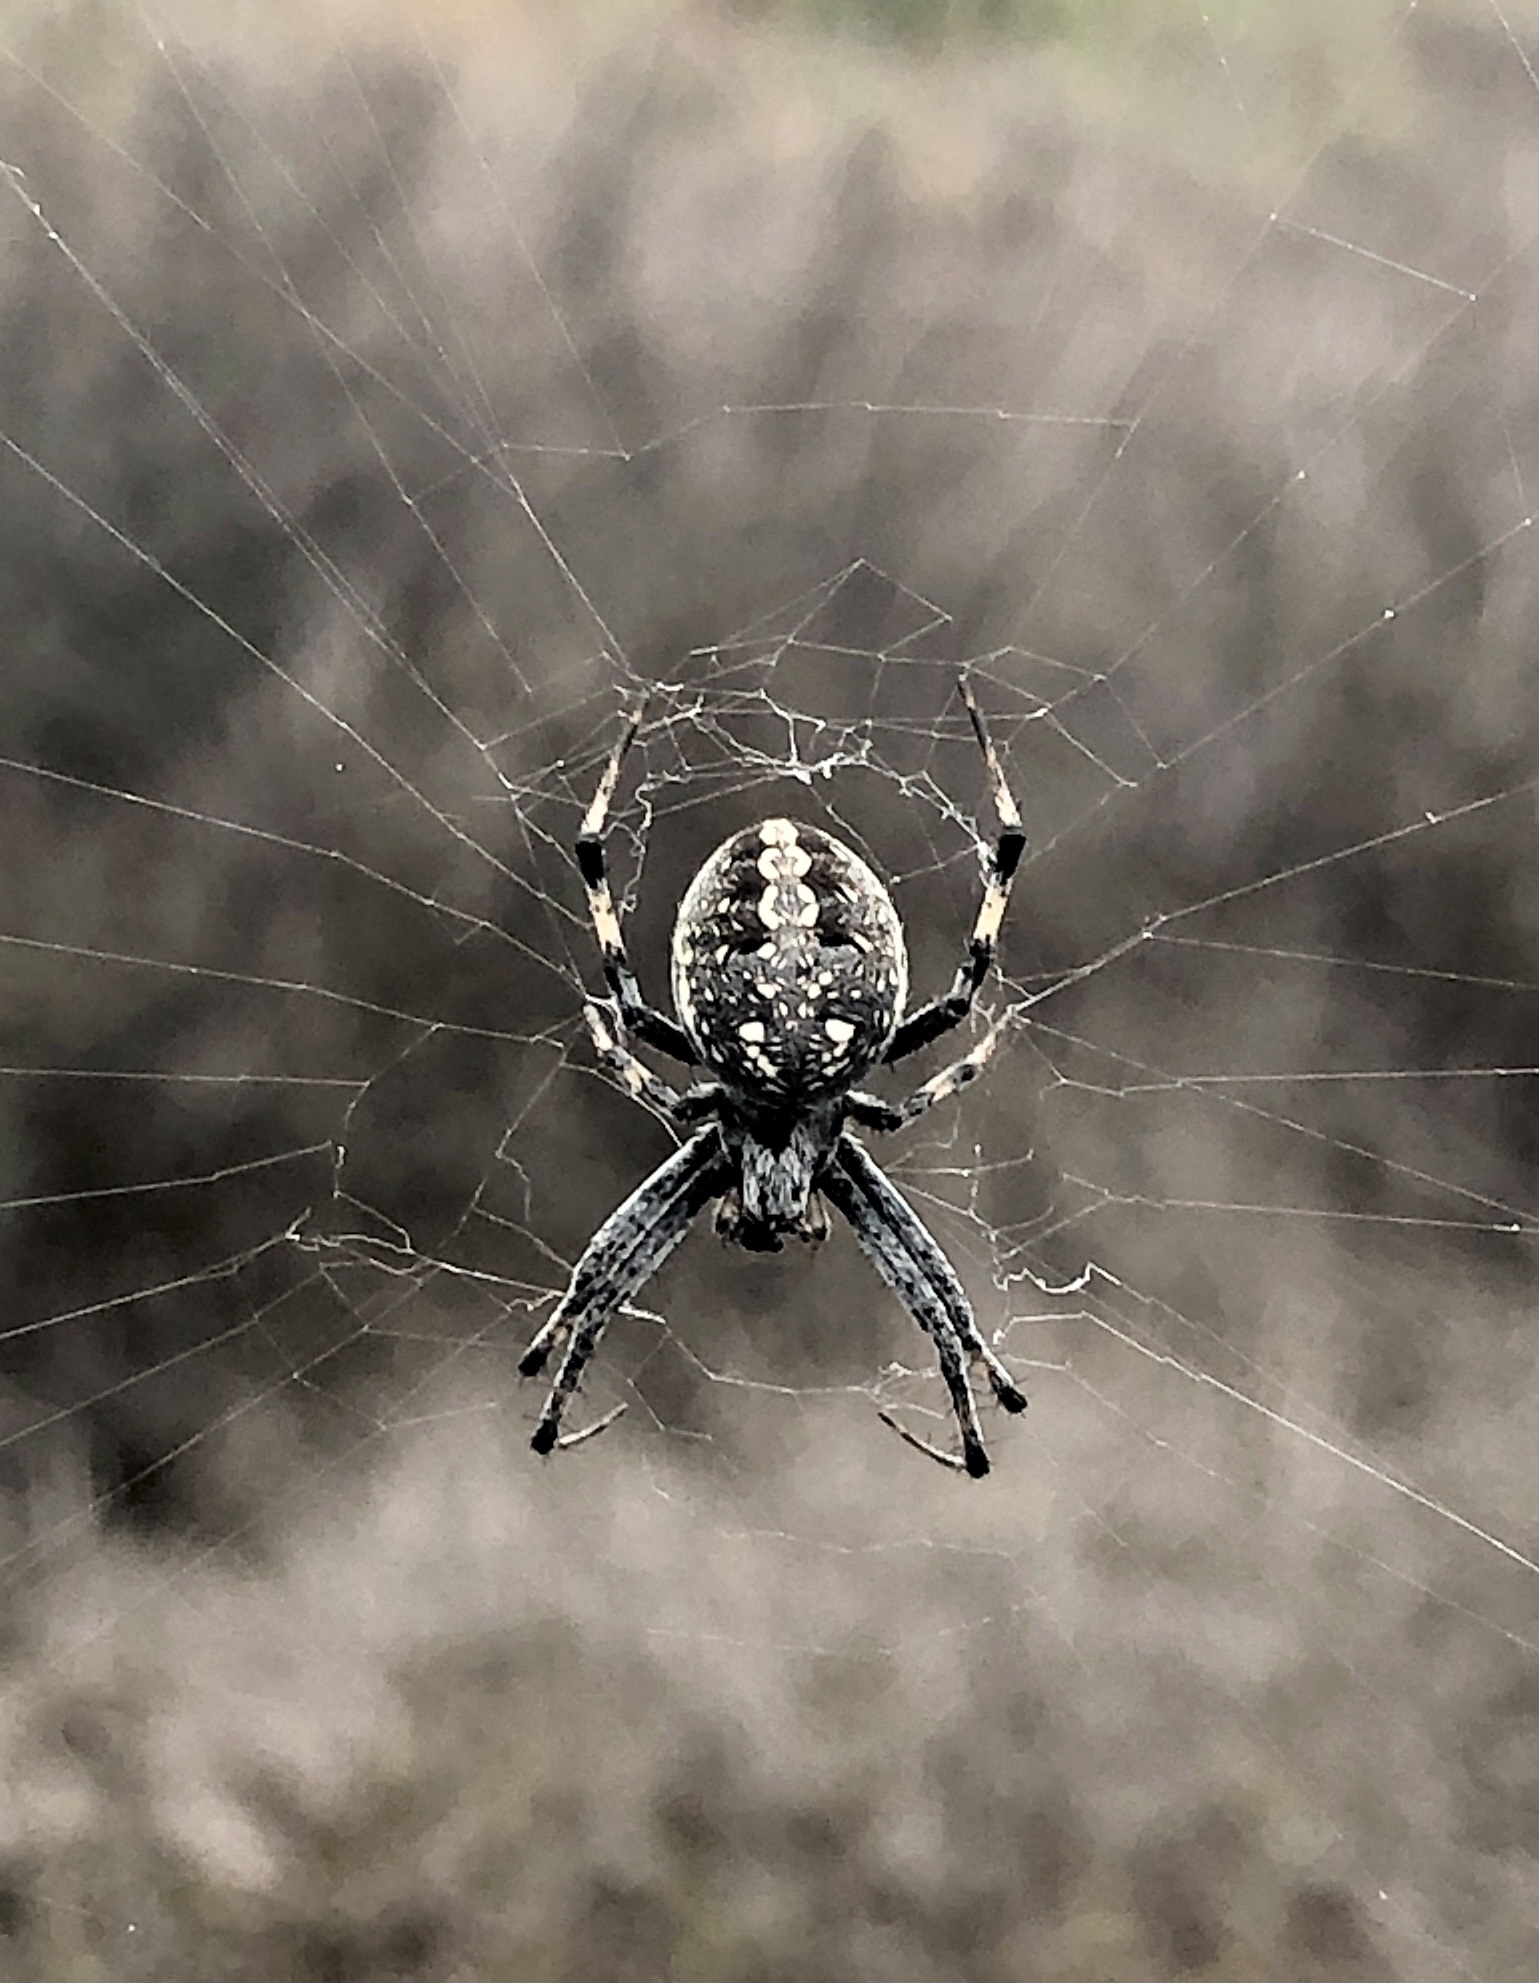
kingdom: Animalia
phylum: Arthropoda
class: Arachnida
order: Araneae
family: Araneidae
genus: Neoscona
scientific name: Neoscona oaxacensis
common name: Orb weavers
